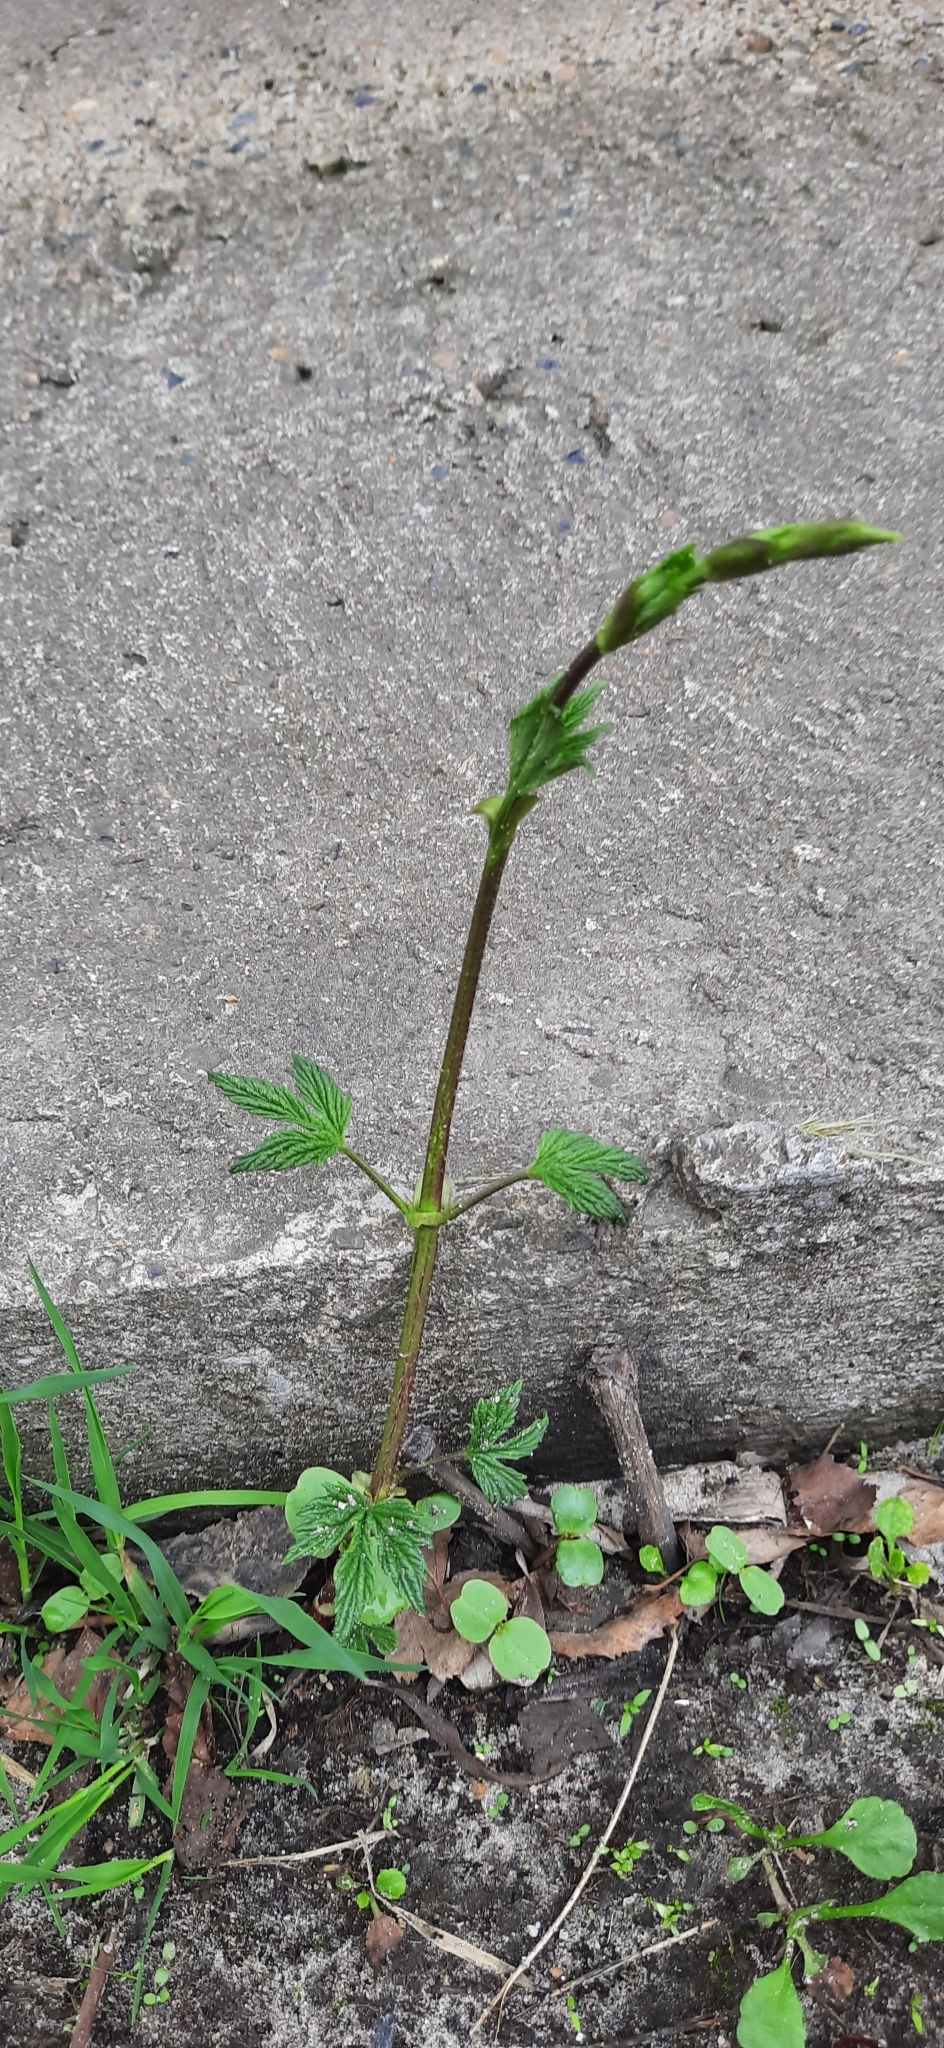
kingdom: Plantae
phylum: Tracheophyta
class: Magnoliopsida
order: Rosales
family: Cannabaceae
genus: Humulus
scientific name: Humulus lupulus
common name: Hop
